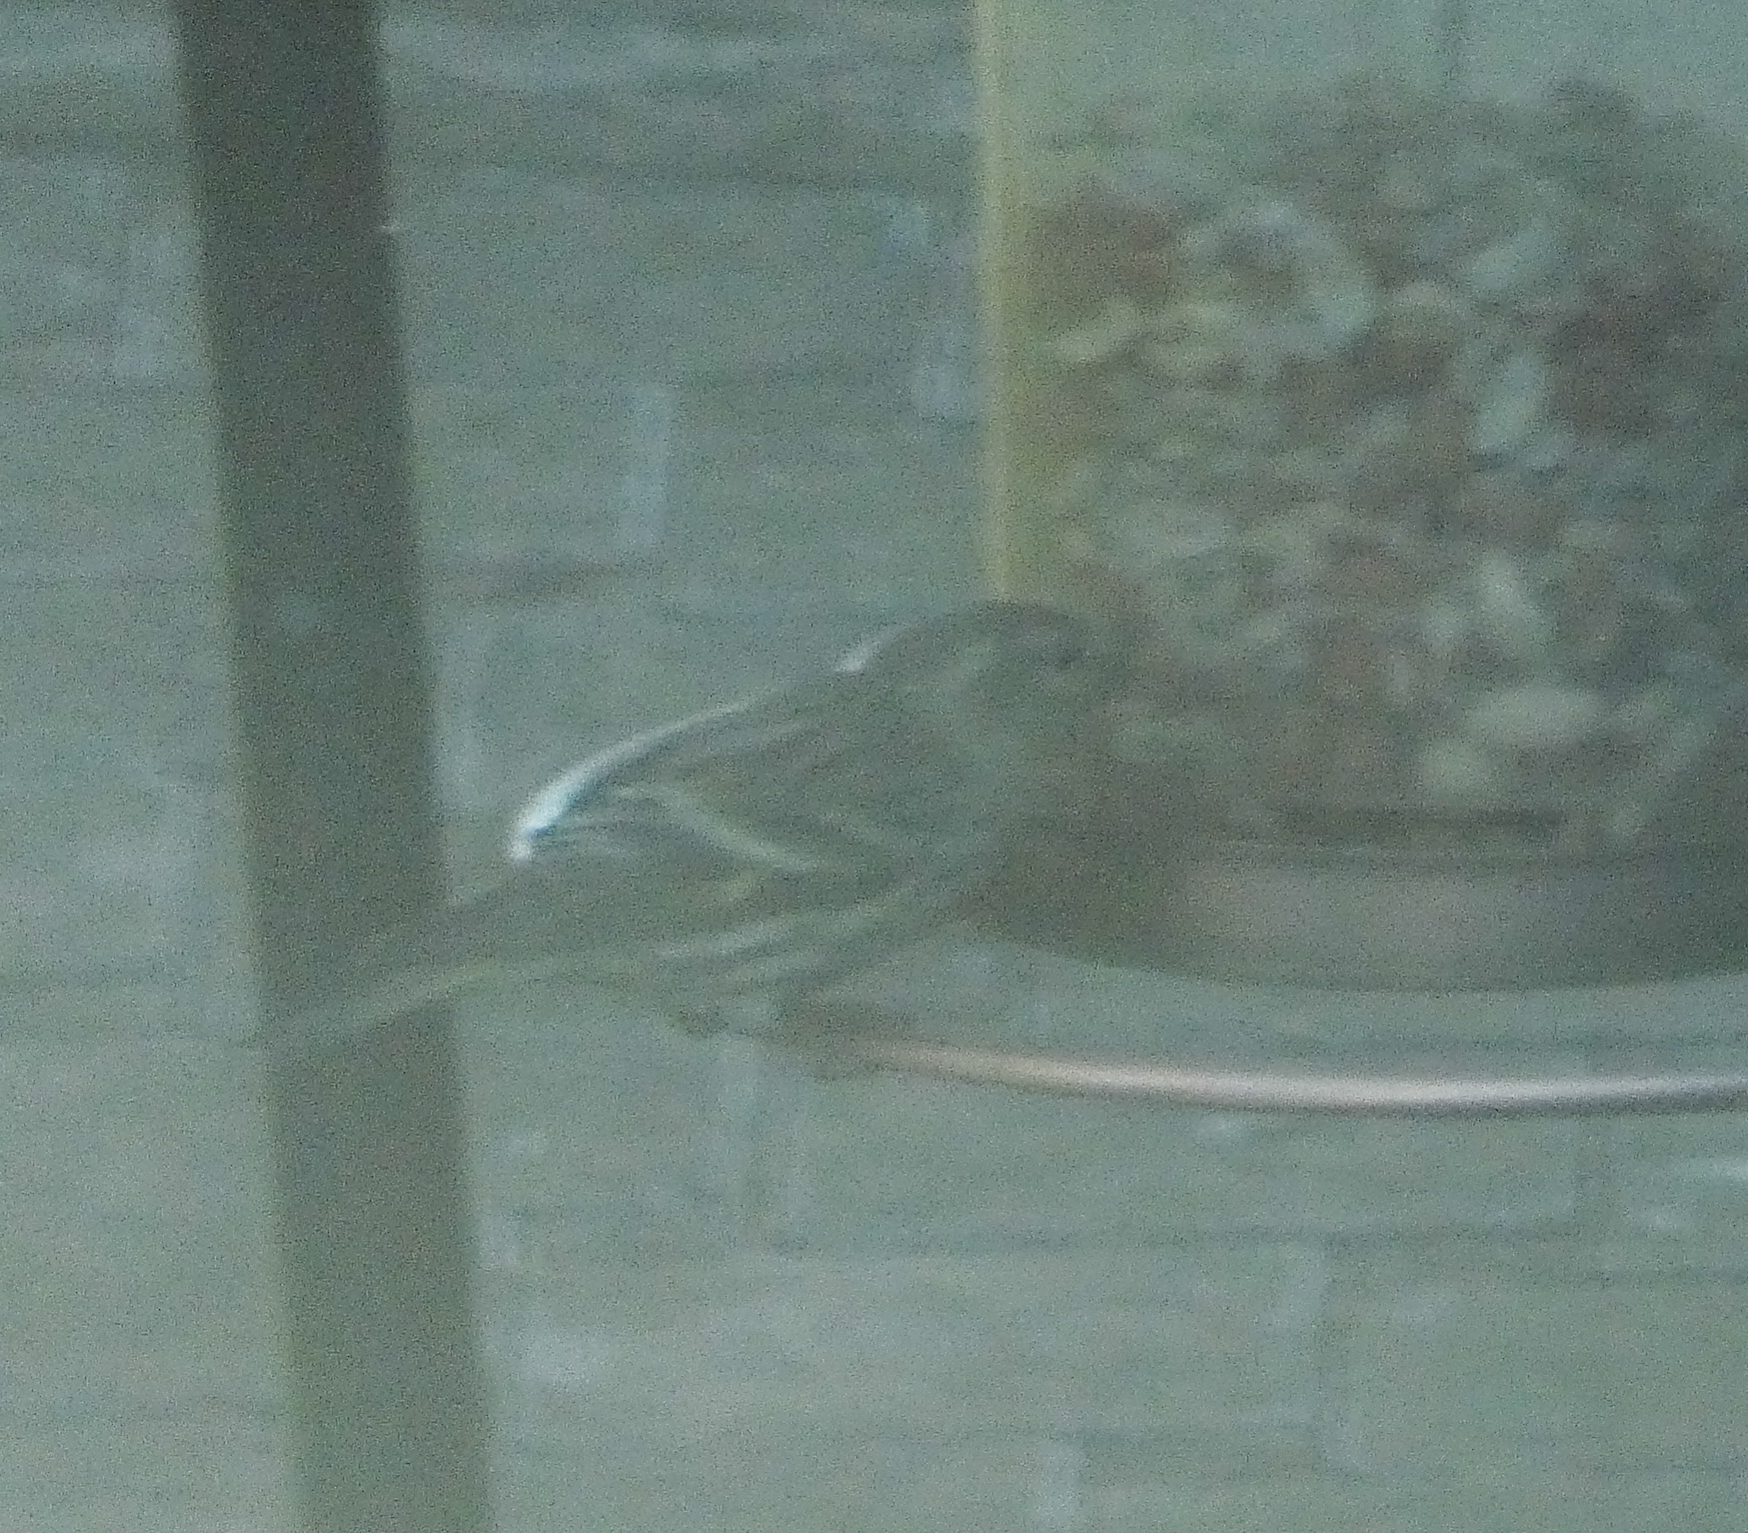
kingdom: Animalia
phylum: Chordata
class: Aves
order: Passeriformes
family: Fringillidae
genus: Spinus
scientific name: Spinus pinus
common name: Pine siskin
